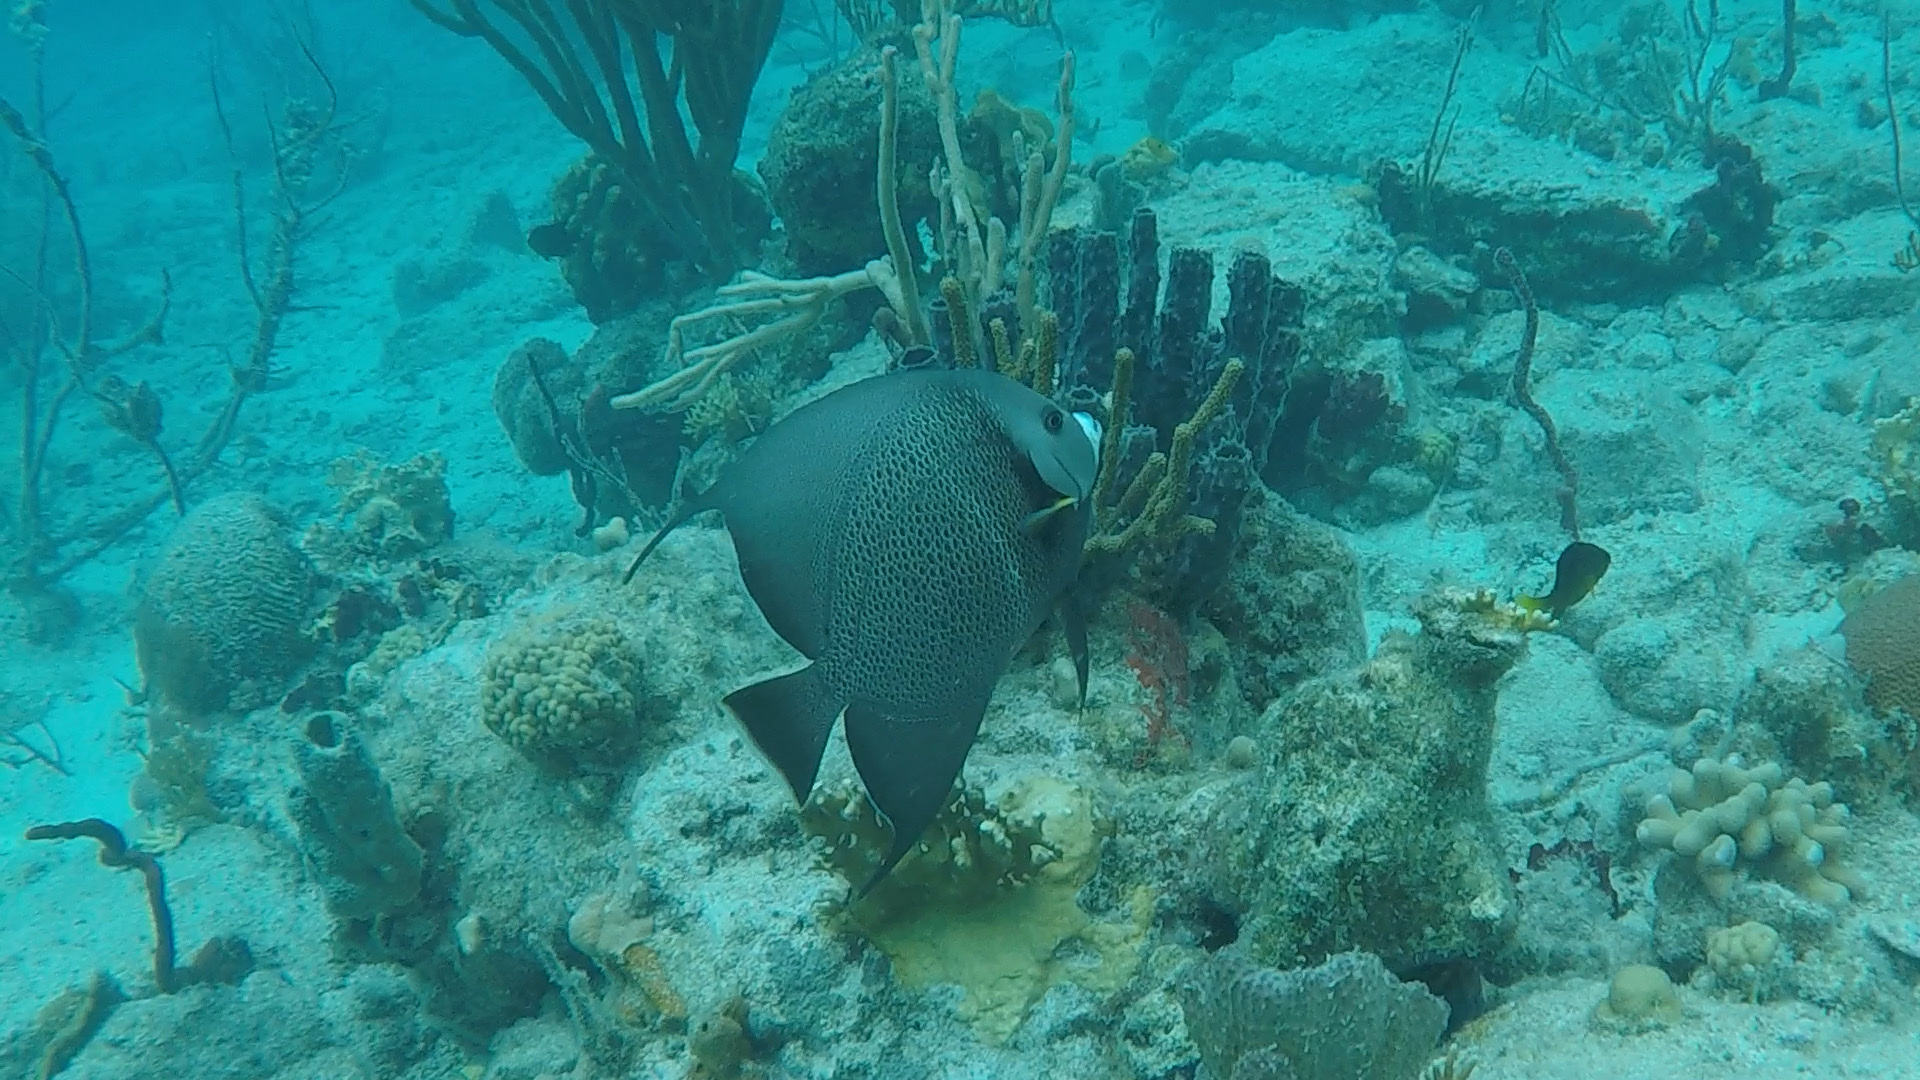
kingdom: Animalia
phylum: Chordata
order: Perciformes
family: Pomacanthidae
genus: Pomacanthus
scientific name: Pomacanthus arcuatus
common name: Gray angelfish
